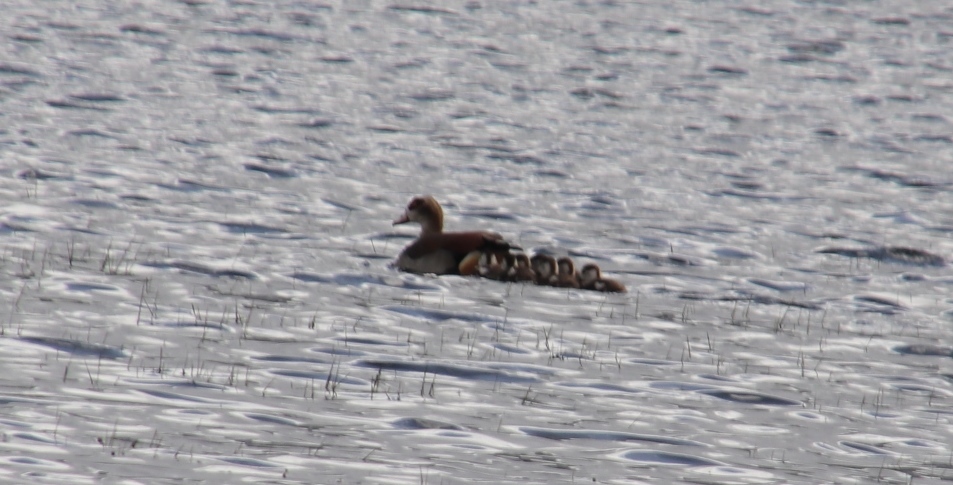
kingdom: Animalia
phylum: Chordata
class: Aves
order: Anseriformes
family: Anatidae
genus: Alopochen
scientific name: Alopochen aegyptiaca
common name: Egyptian goose
